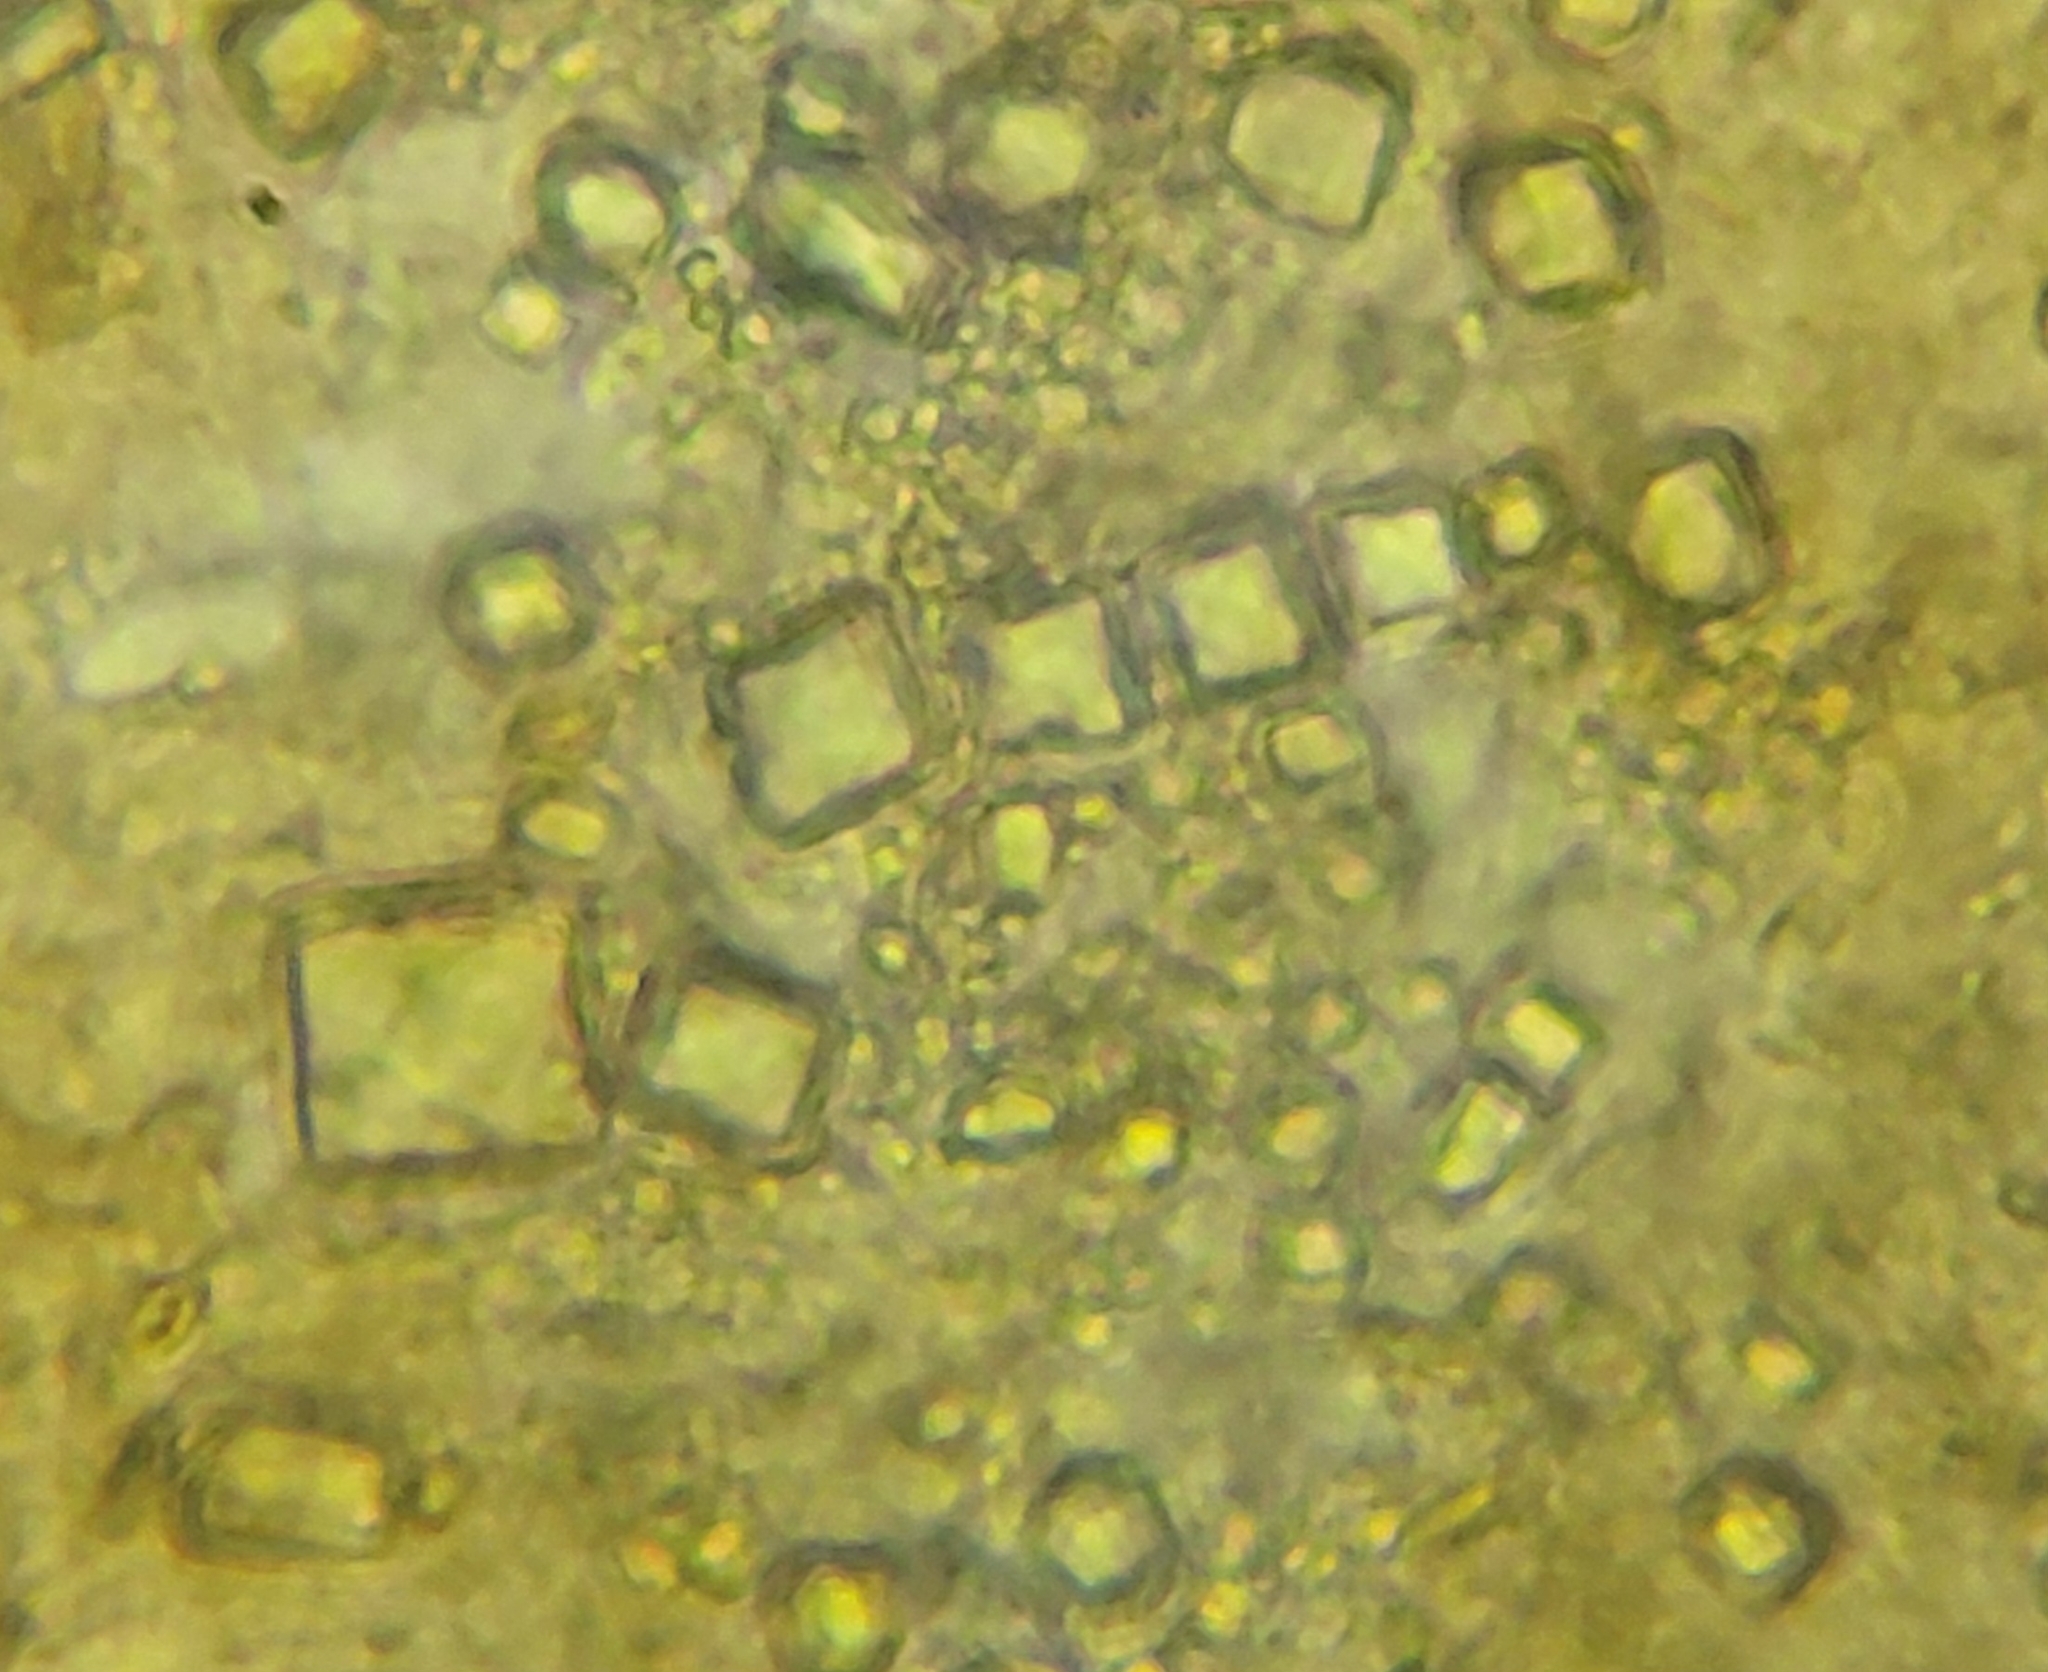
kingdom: Fungi
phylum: Basidiomycota
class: Agaricomycetes
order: Auriculariales
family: Auriculariaceae
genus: Exidia
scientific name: Exidia
